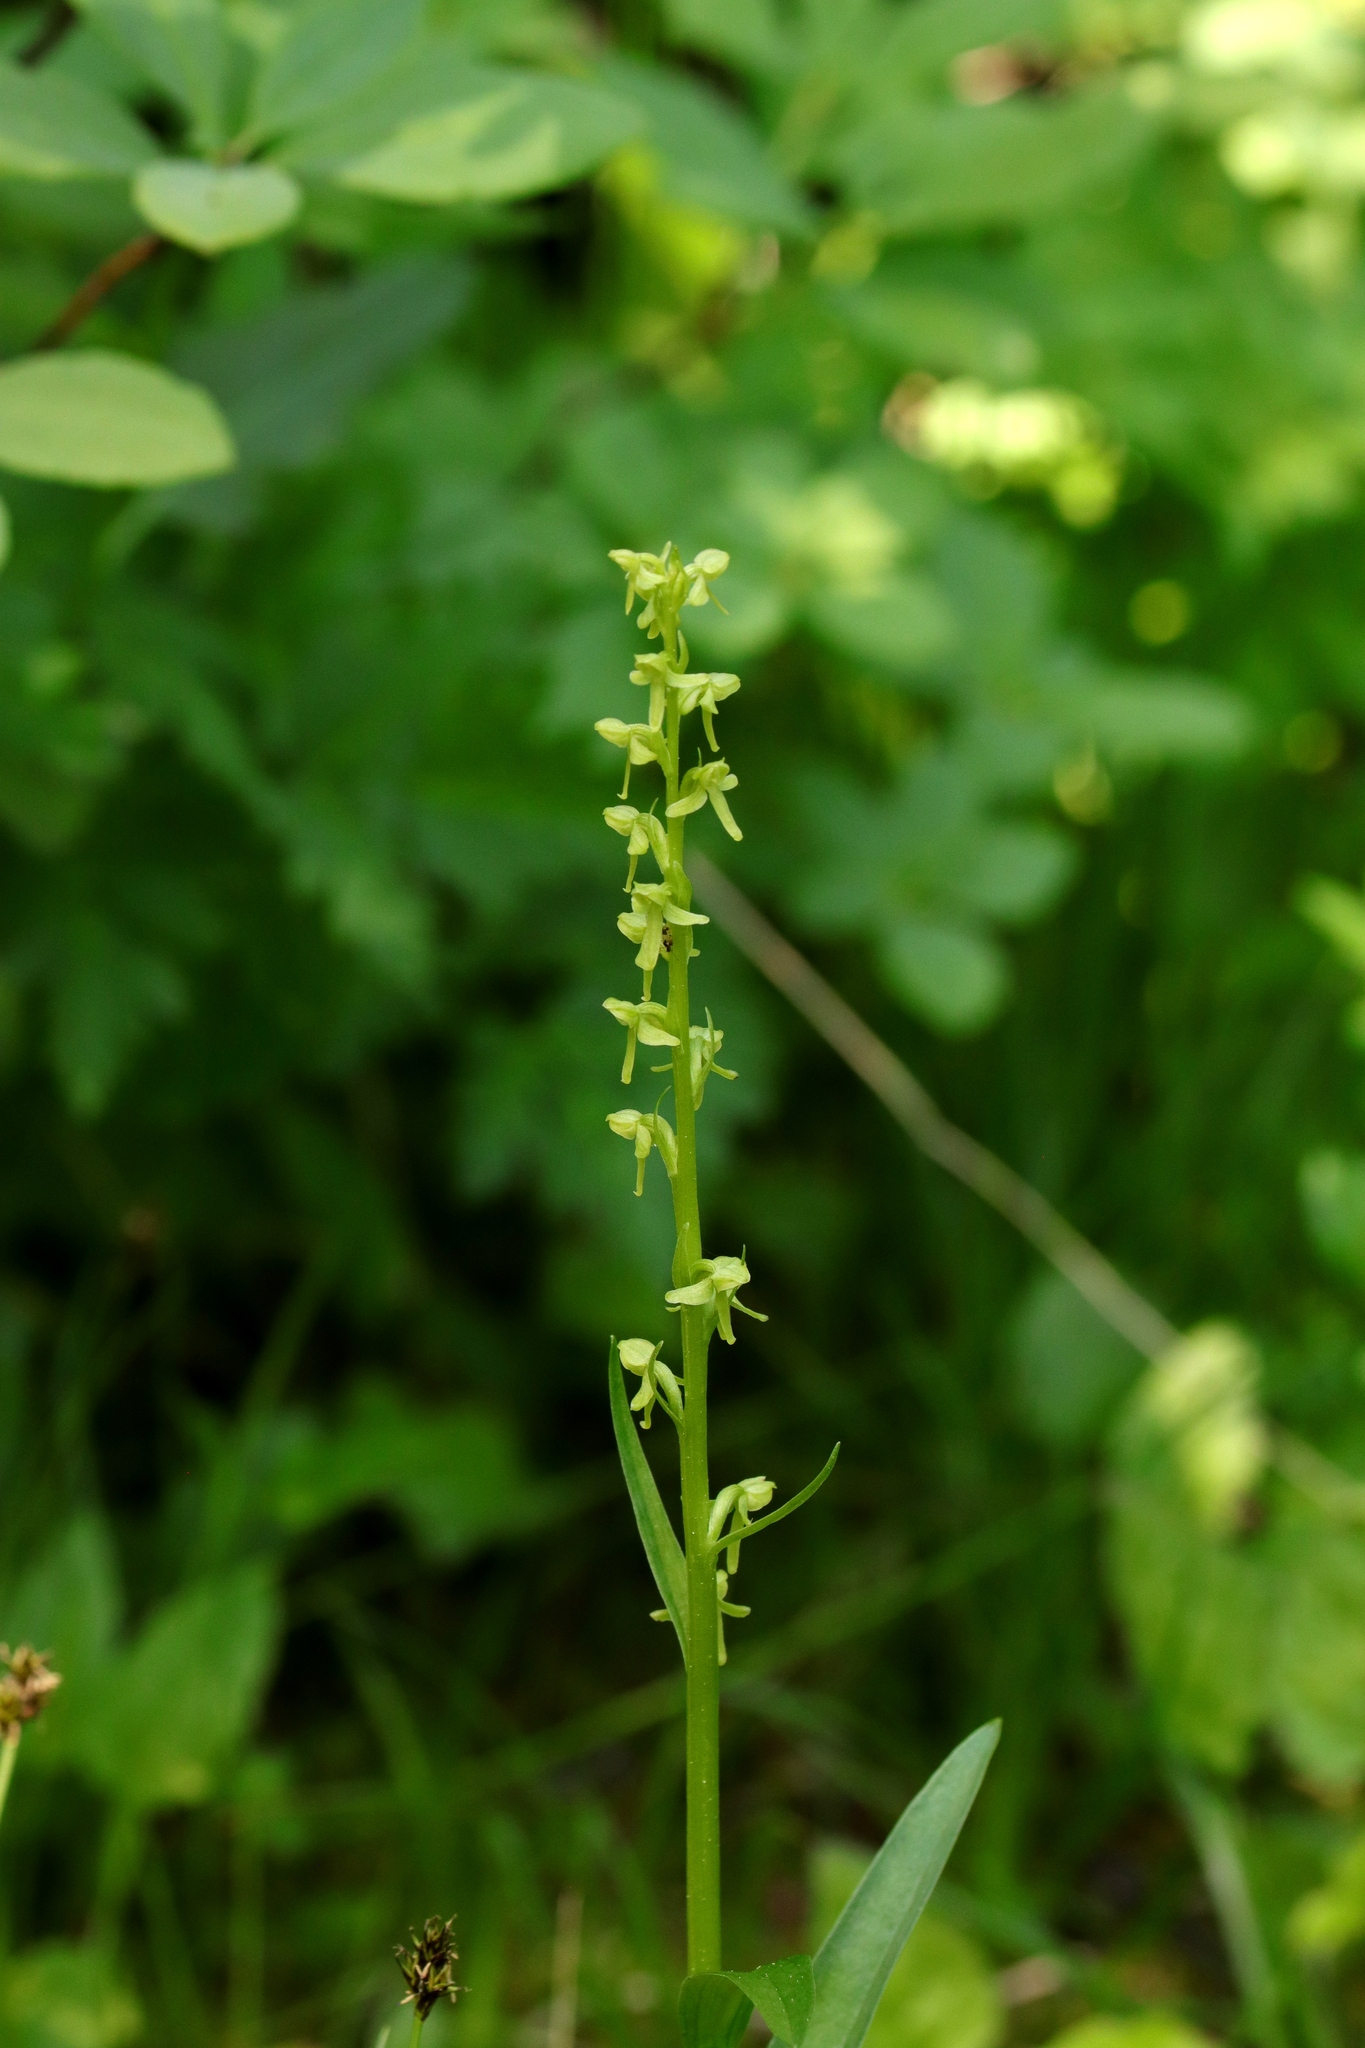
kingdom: Plantae
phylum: Tracheophyta
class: Liliopsida
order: Asparagales
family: Orchidaceae
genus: Platanthera
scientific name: Platanthera stricta
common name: Slender bog orchid
